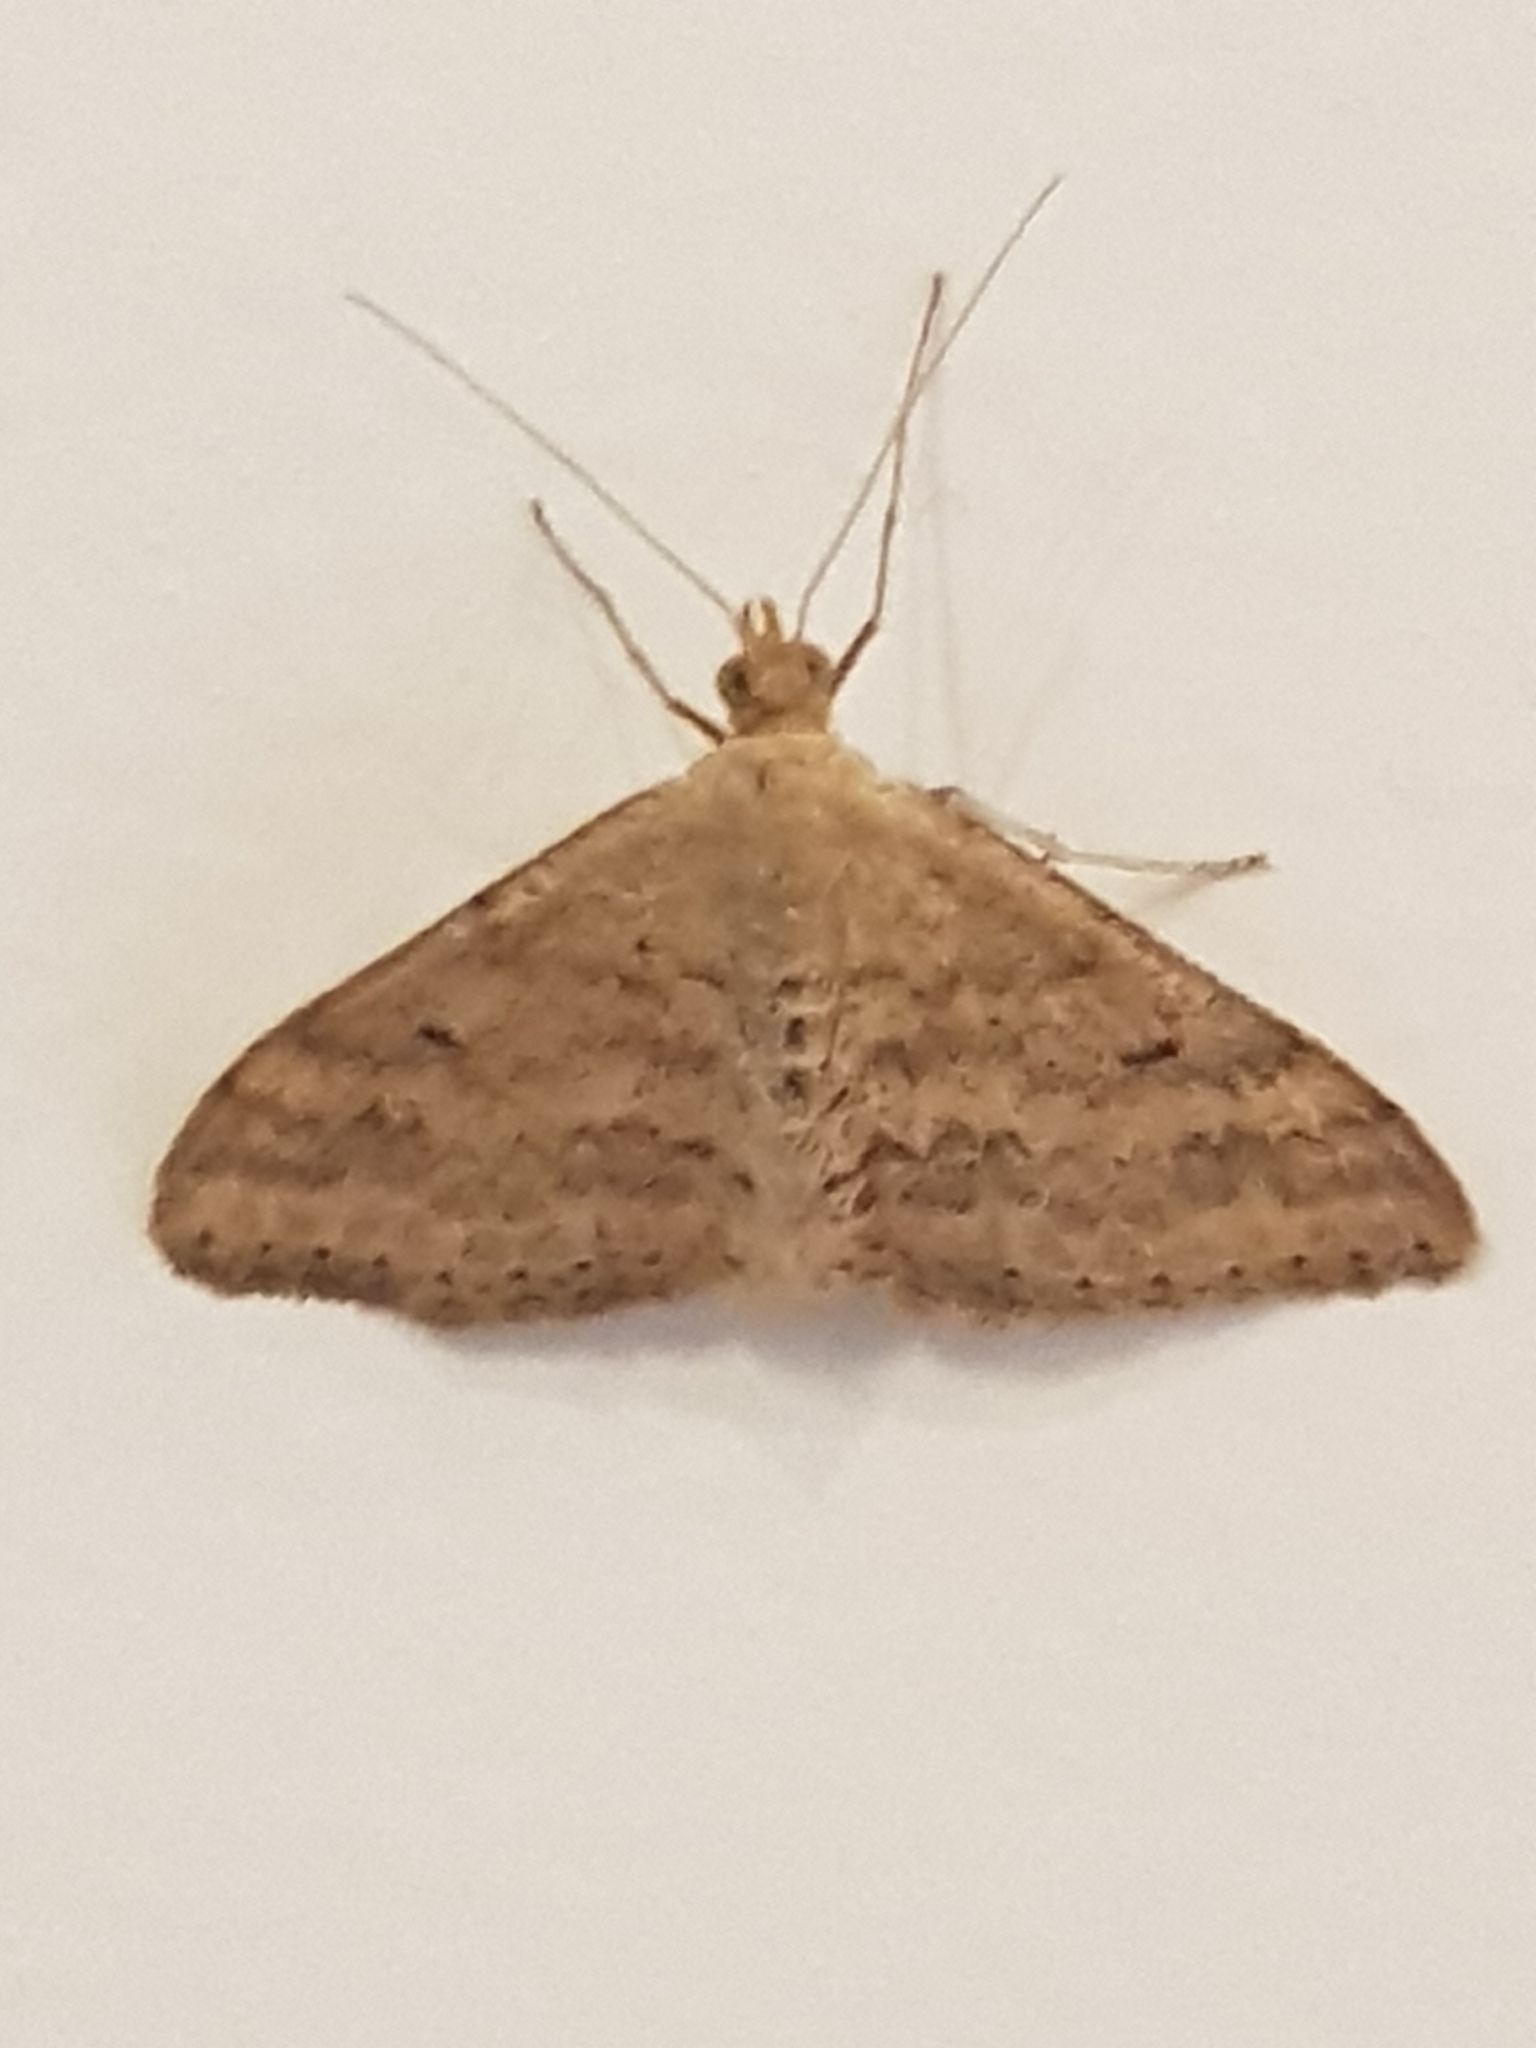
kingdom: Animalia
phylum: Arthropoda
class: Insecta
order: Lepidoptera
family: Geometridae
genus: Scopula
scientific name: Scopula rubraria
